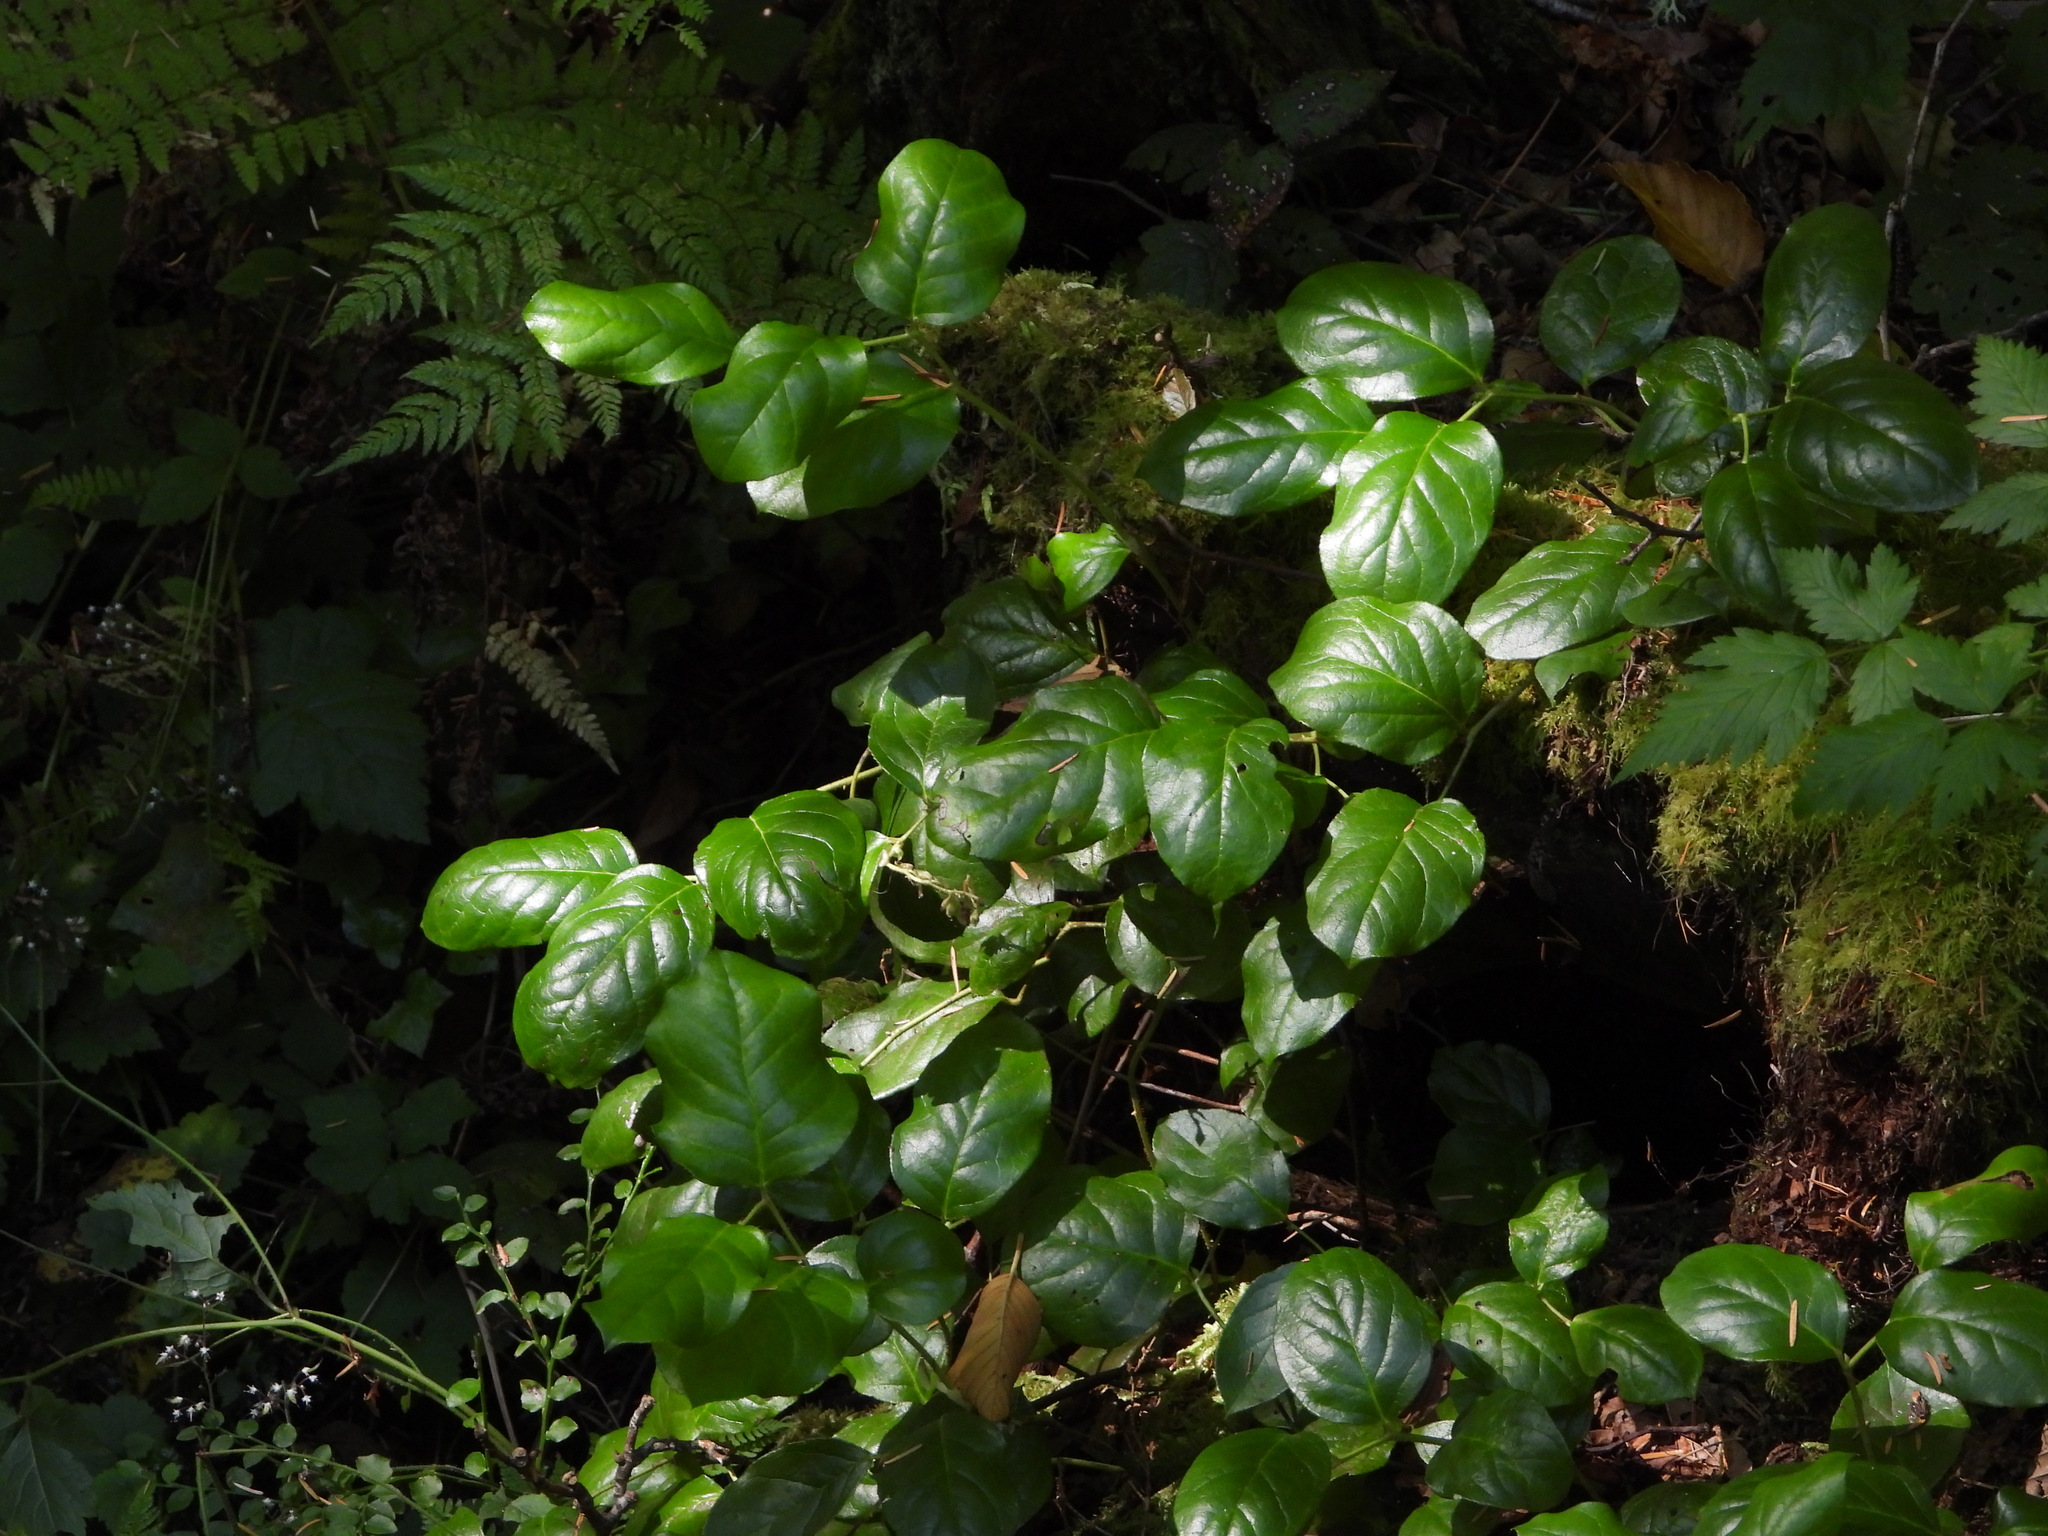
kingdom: Plantae
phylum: Tracheophyta
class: Magnoliopsida
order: Ericales
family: Ericaceae
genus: Gaultheria
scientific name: Gaultheria shallon
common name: Shallon
